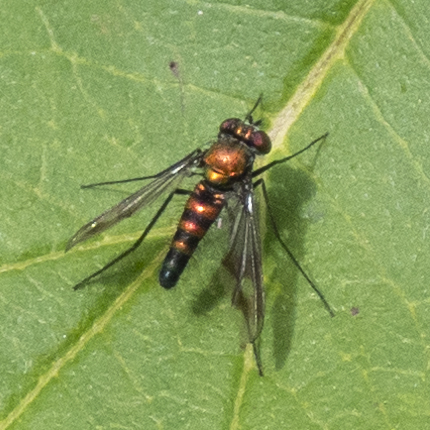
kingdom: Animalia
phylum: Arthropoda
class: Insecta
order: Diptera
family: Dolichopodidae
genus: Condylostylus
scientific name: Condylostylus patibulatus
